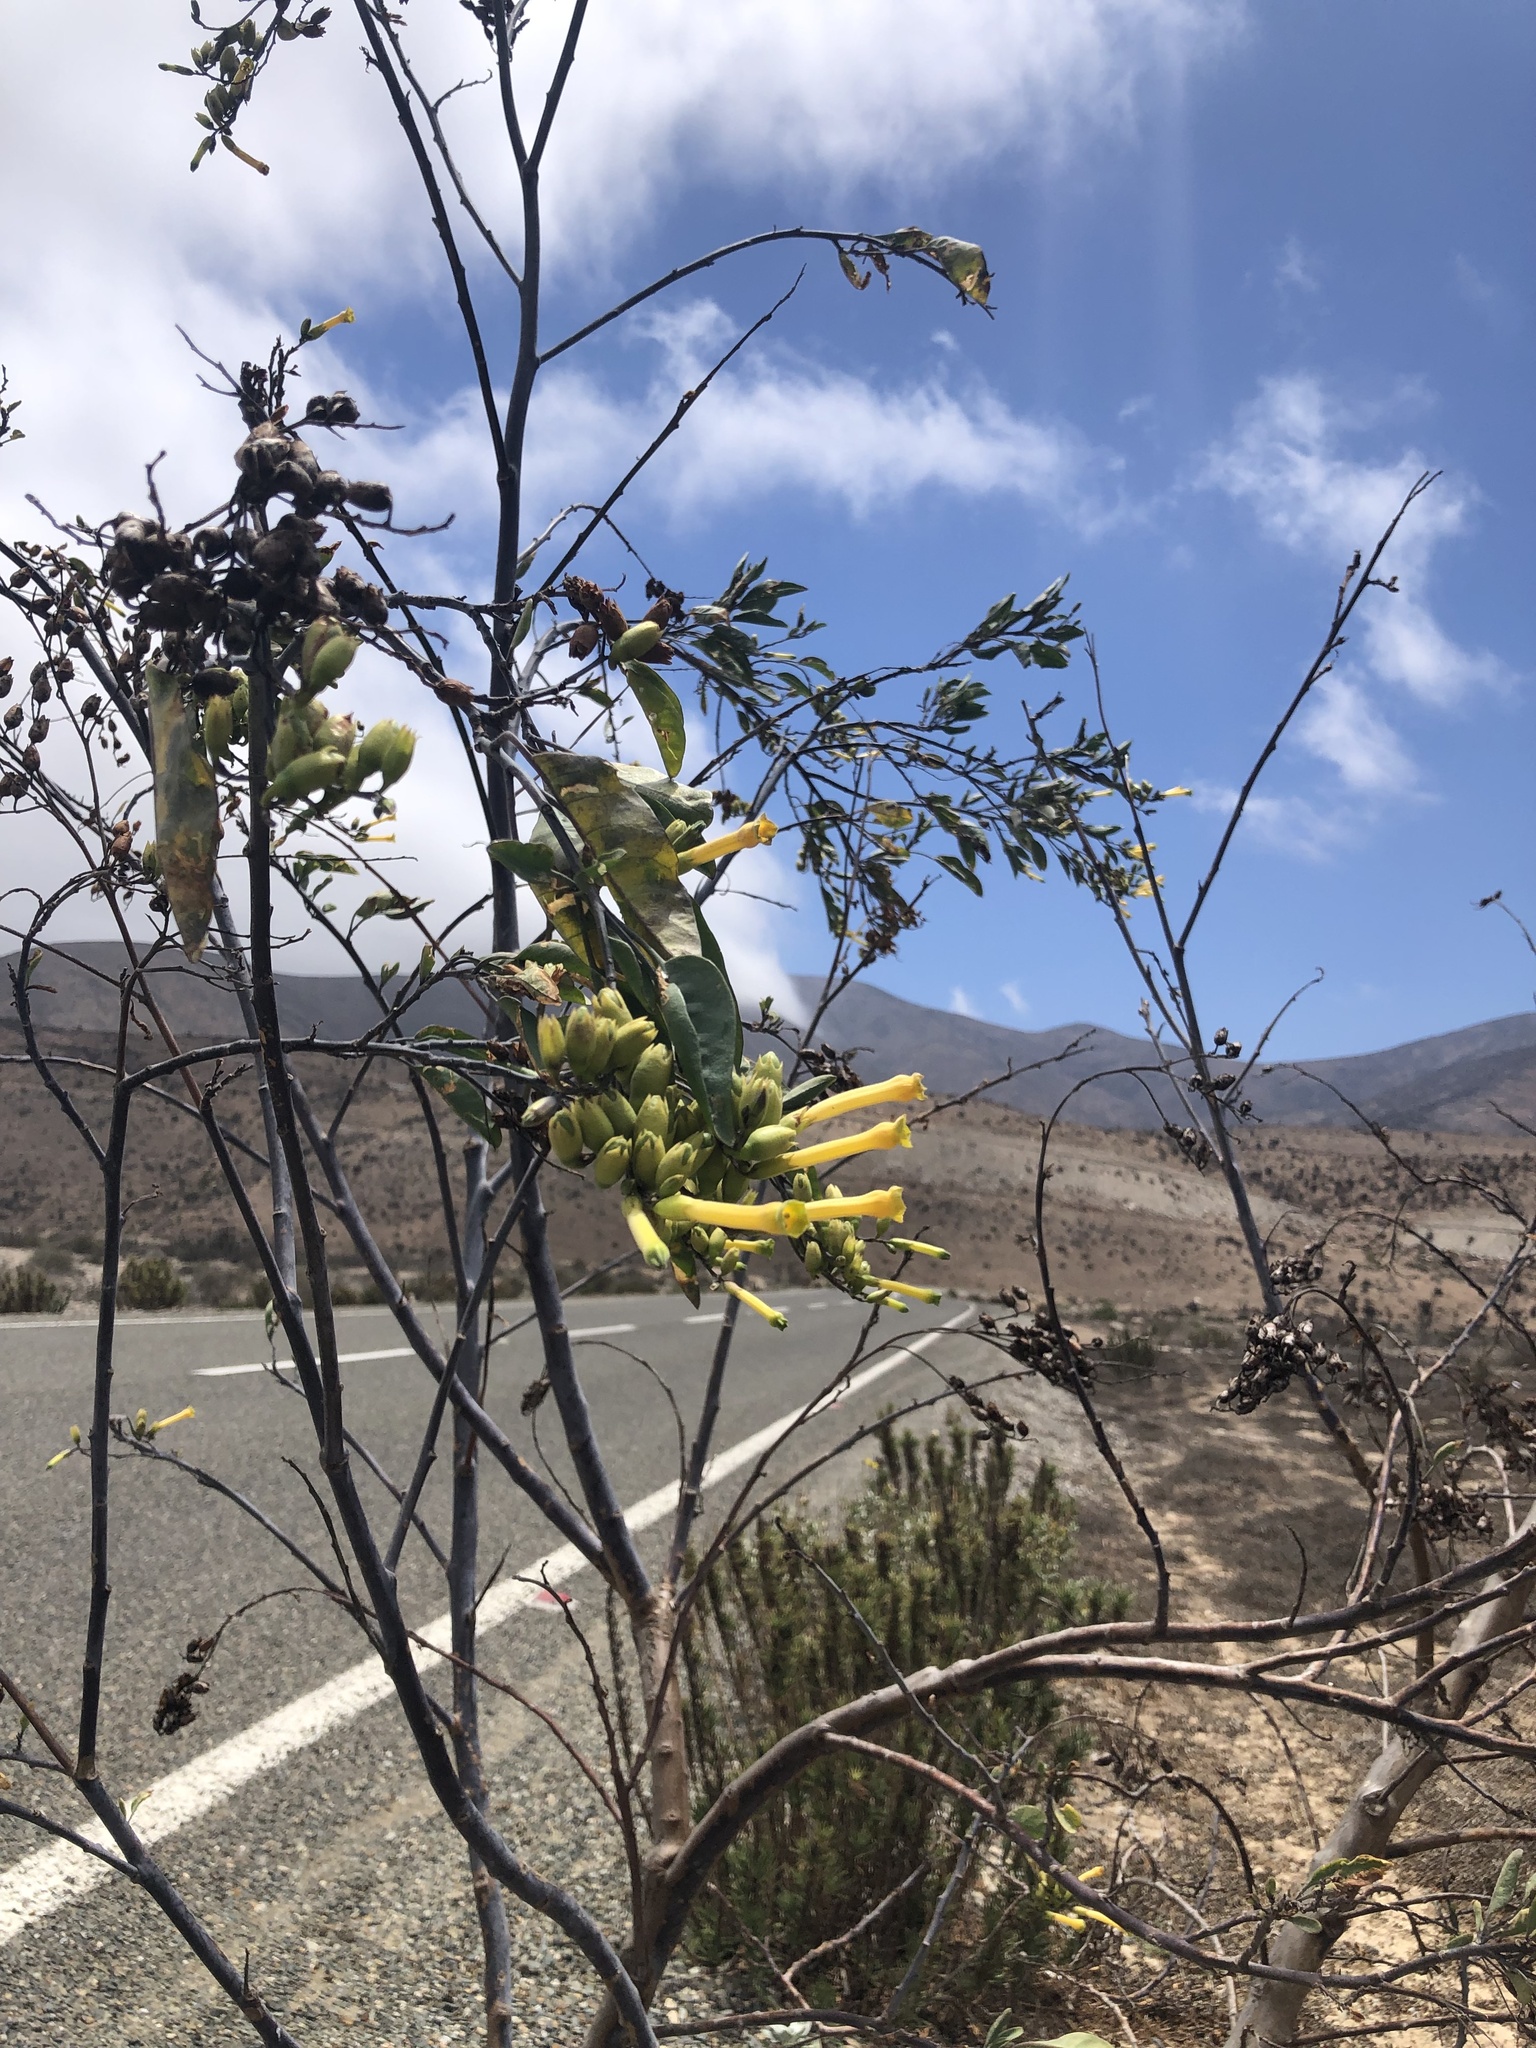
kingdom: Plantae
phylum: Tracheophyta
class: Magnoliopsida
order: Solanales
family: Solanaceae
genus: Nicotiana
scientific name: Nicotiana glauca
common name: Tree tobacco
